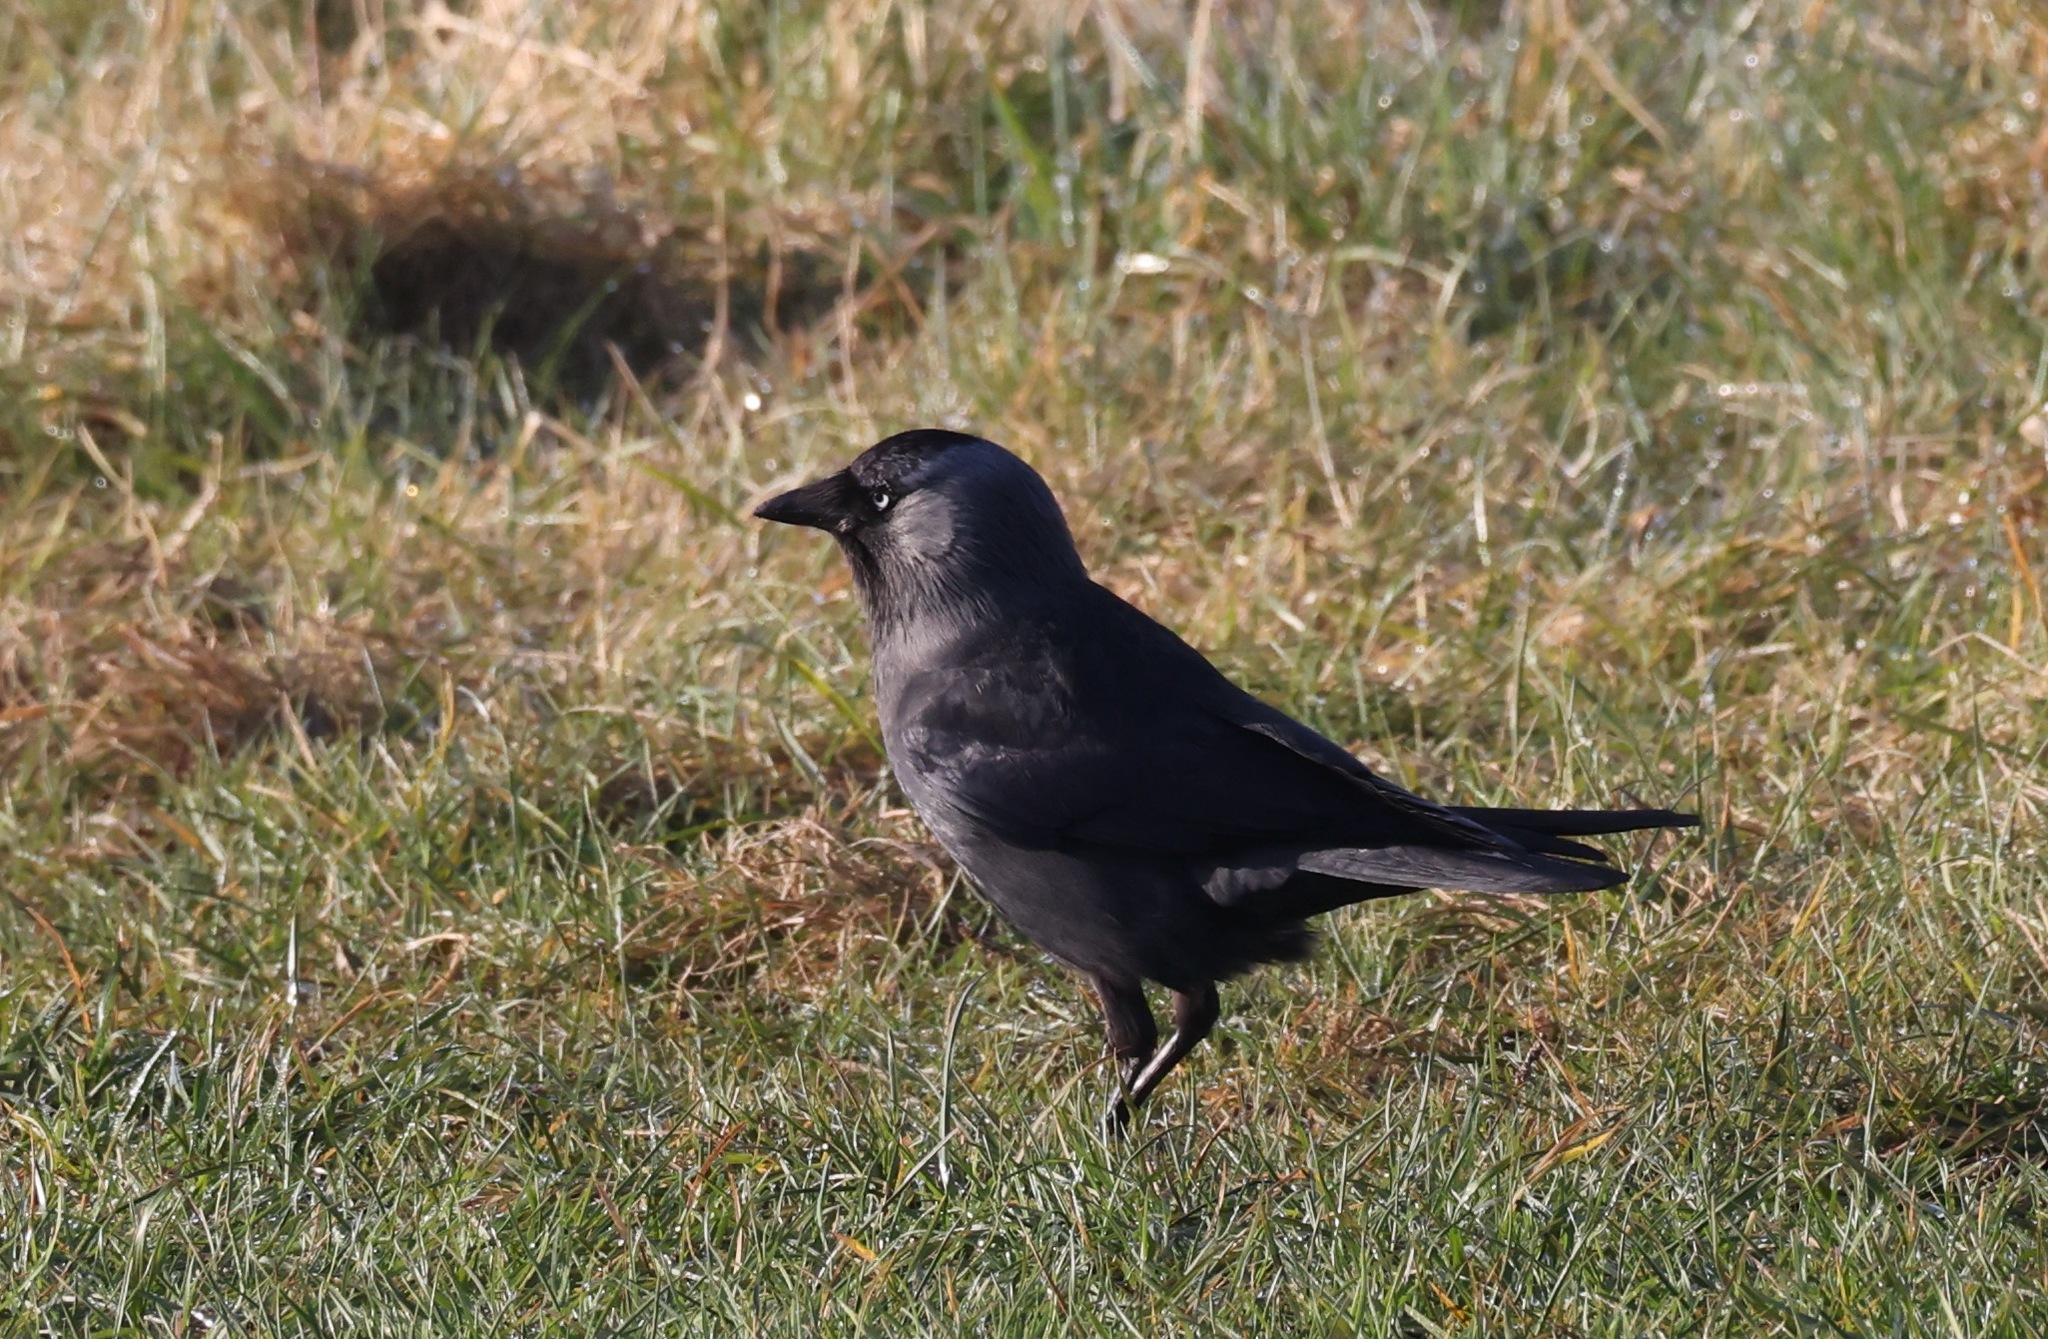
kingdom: Animalia
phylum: Chordata
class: Aves
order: Passeriformes
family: Corvidae
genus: Coloeus
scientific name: Coloeus monedula
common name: Western jackdaw
